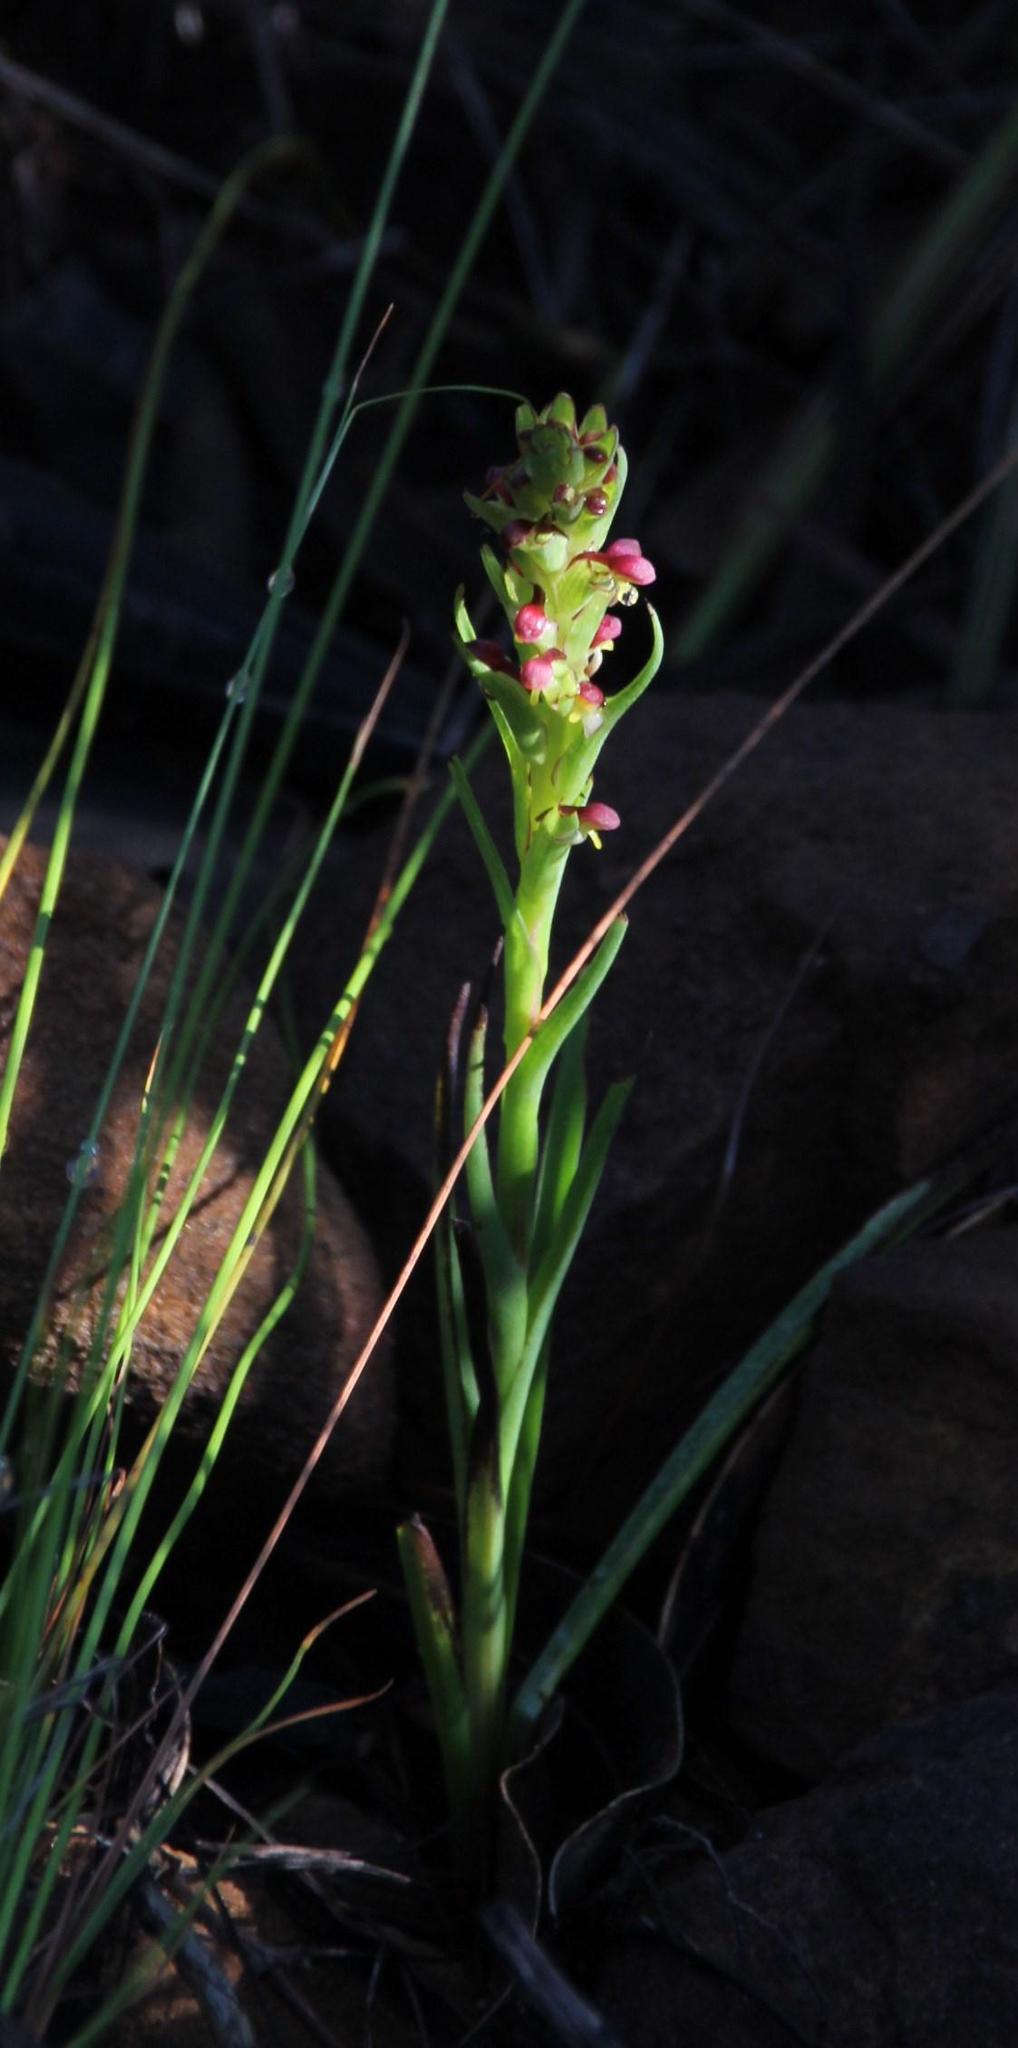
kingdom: Plantae
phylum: Tracheophyta
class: Liliopsida
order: Asparagales
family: Orchidaceae
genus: Disa
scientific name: Disa bracteata
